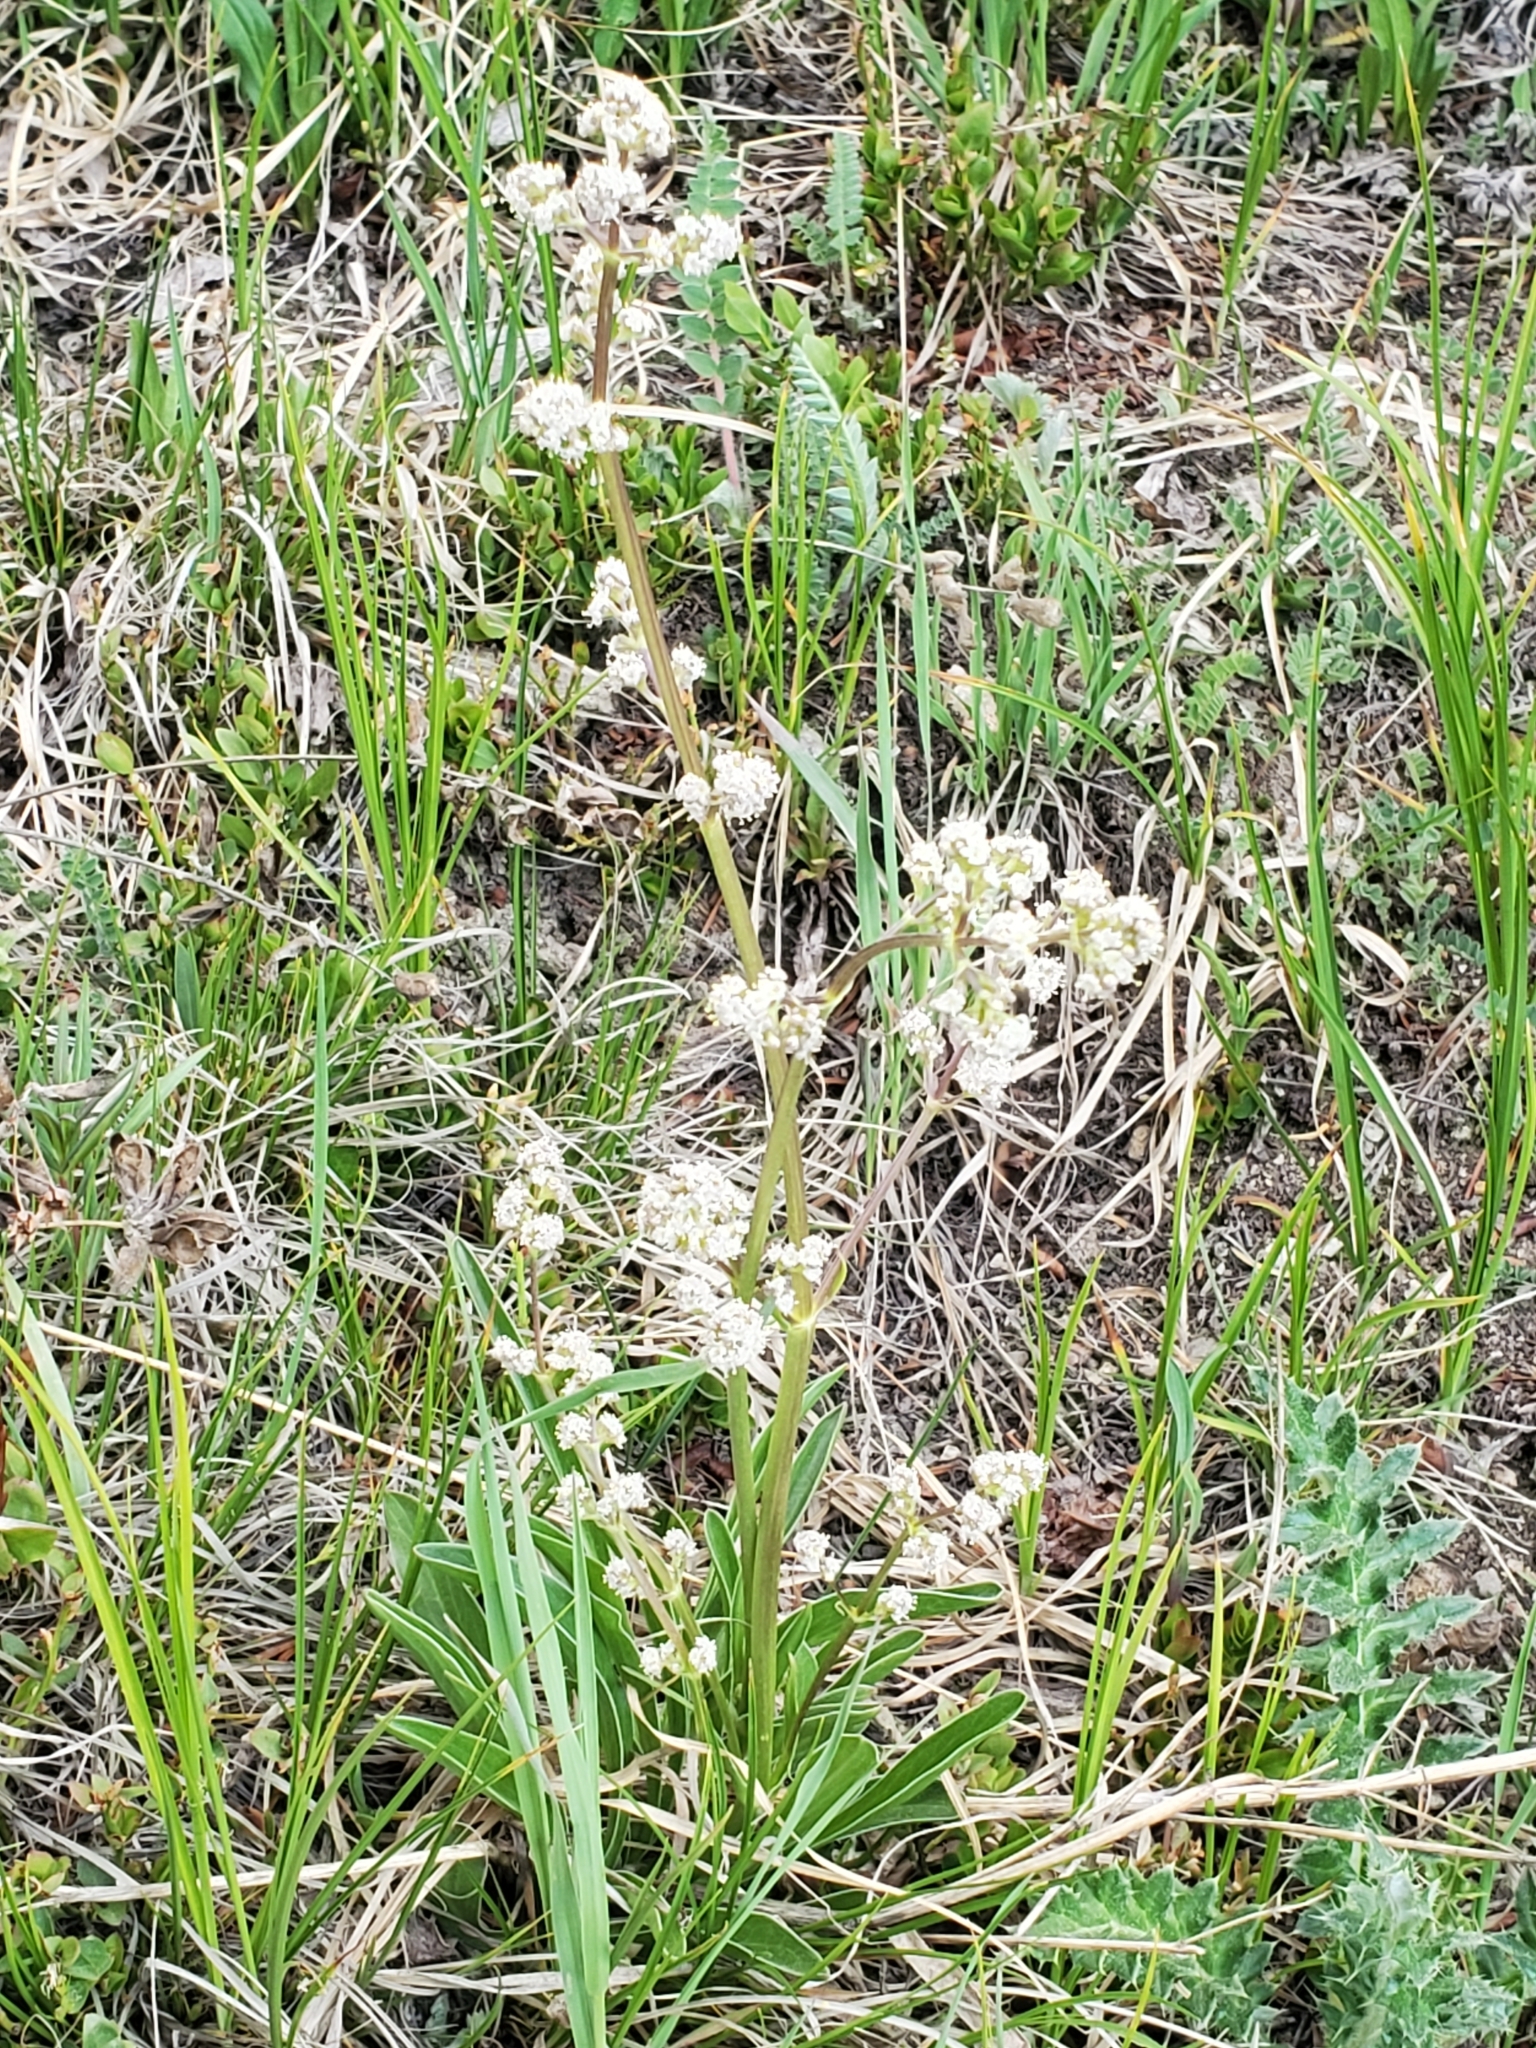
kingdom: Plantae
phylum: Tracheophyta
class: Magnoliopsida
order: Dipsacales
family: Caprifoliaceae
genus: Valeriana
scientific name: Valeriana edulis
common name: Taproot valerian
